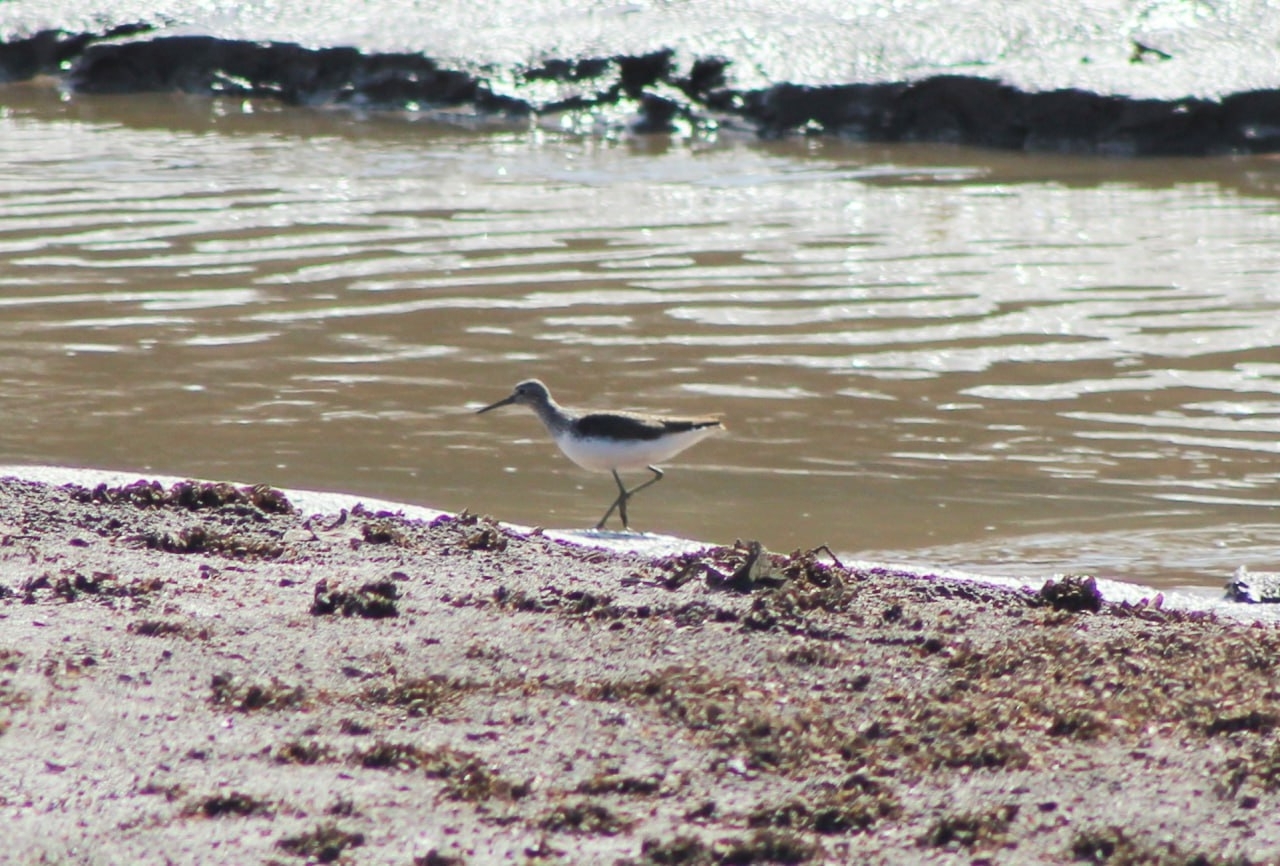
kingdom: Animalia
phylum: Chordata
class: Aves
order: Charadriiformes
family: Scolopacidae
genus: Tringa
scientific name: Tringa ochropus
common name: Green sandpiper
